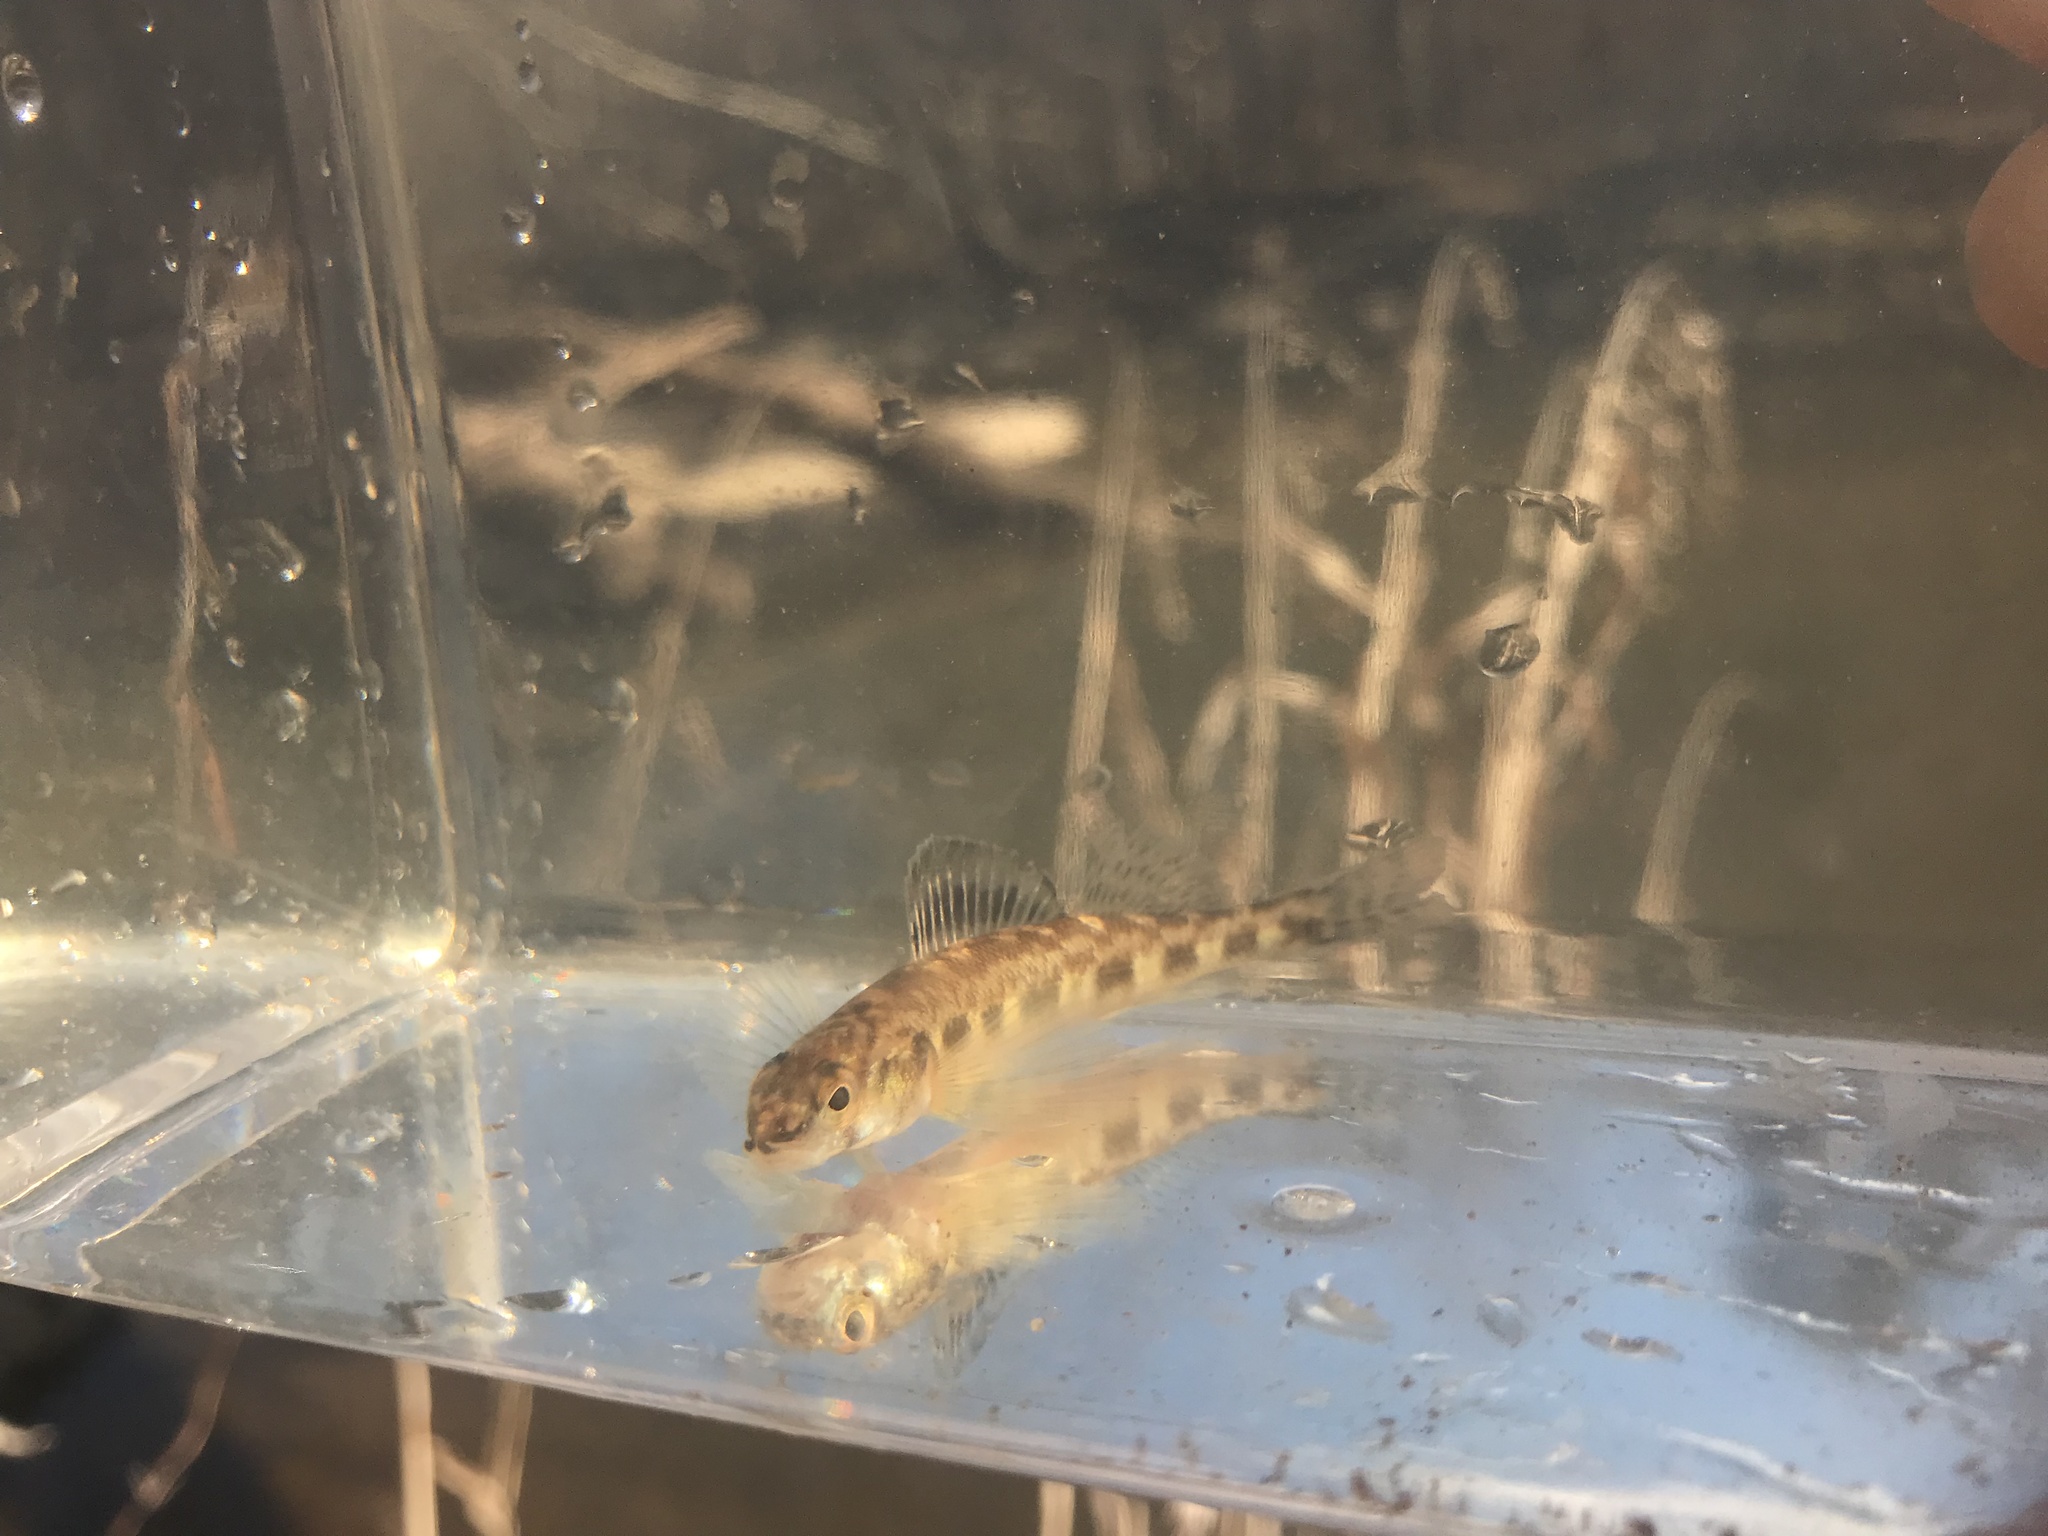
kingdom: Animalia
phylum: Chordata
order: Perciformes
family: Percidae
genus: Percina
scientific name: Percina nevisense
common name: Chainback darter
